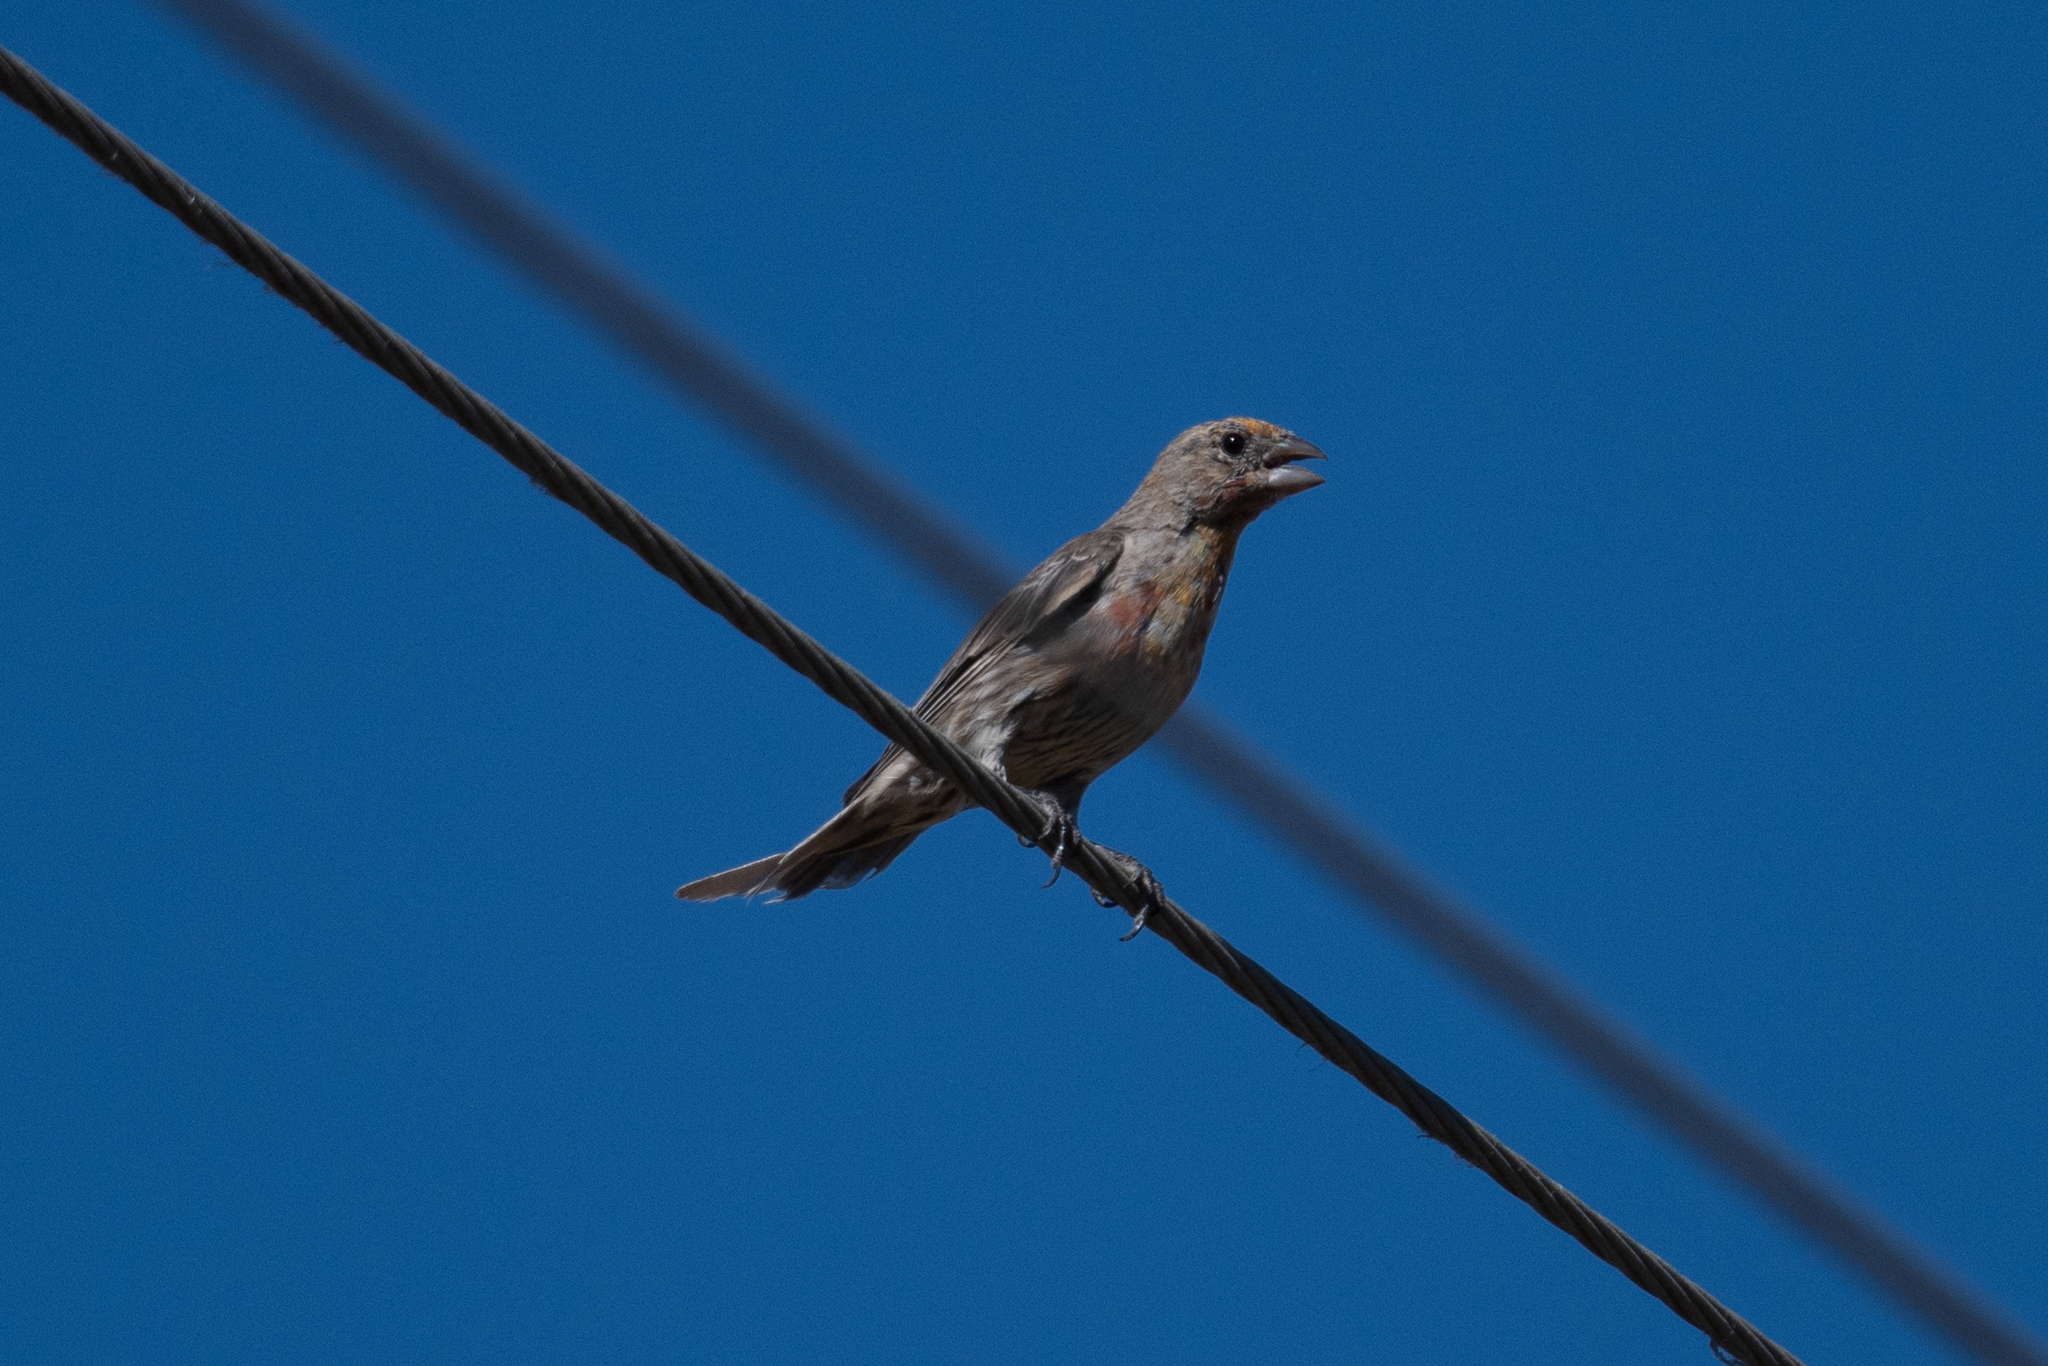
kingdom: Animalia
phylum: Chordata
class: Aves
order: Passeriformes
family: Fringillidae
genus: Haemorhous
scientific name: Haemorhous mexicanus
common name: House finch
